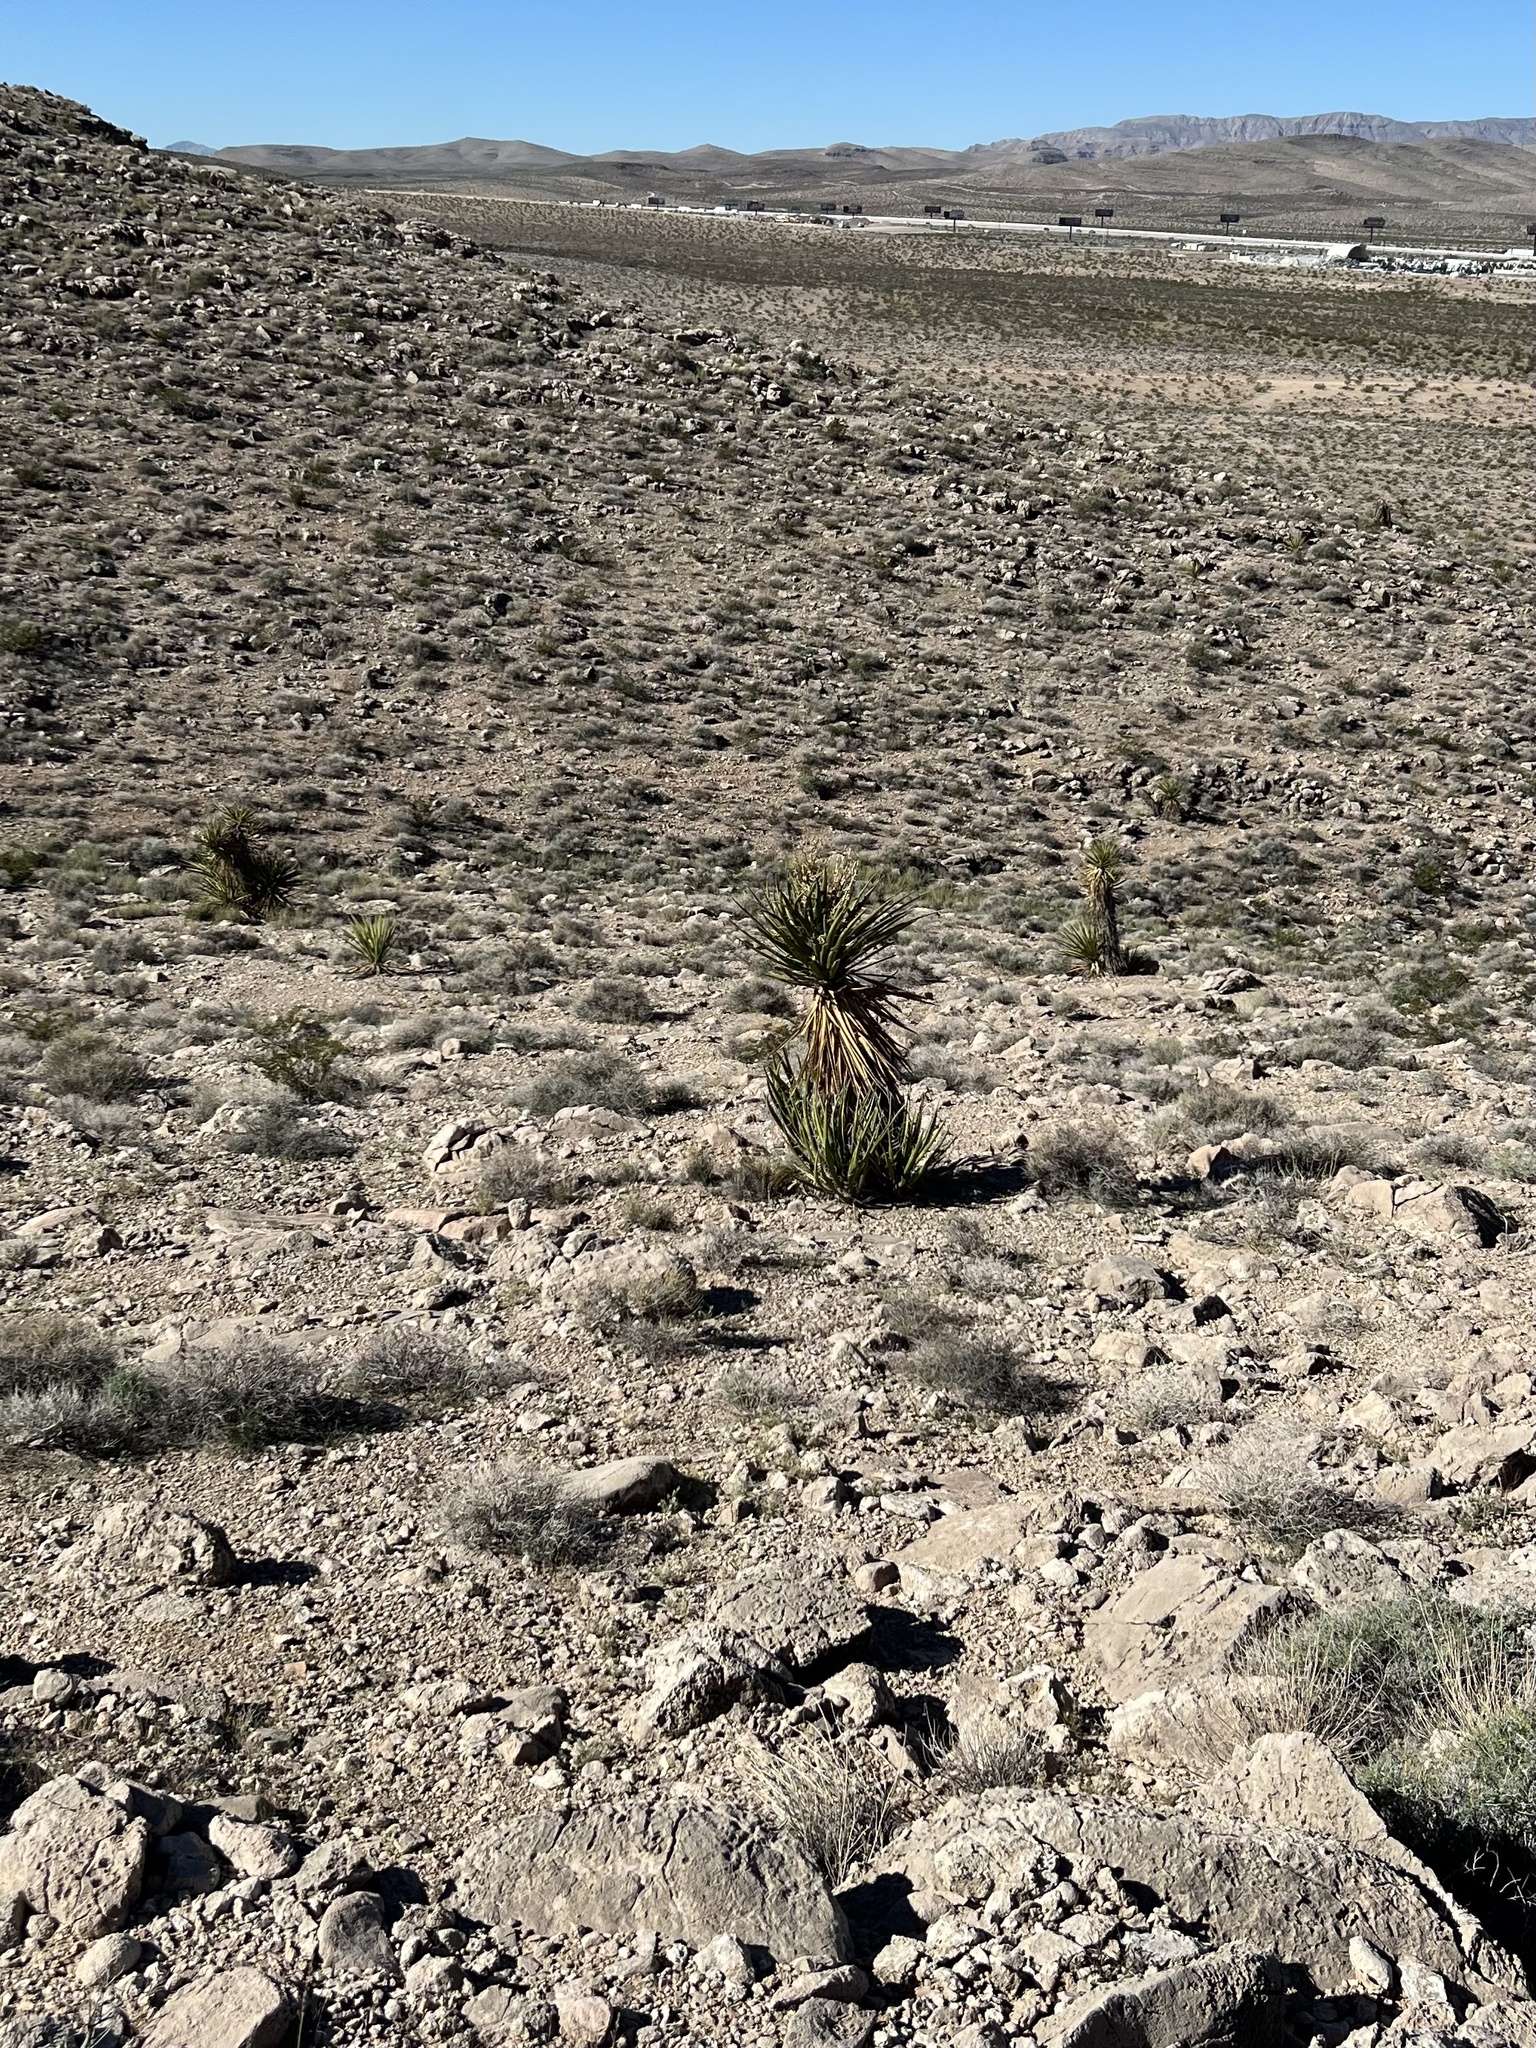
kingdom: Plantae
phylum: Tracheophyta
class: Liliopsida
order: Asparagales
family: Asparagaceae
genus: Yucca
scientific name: Yucca schidigera
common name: Mojave yucca
